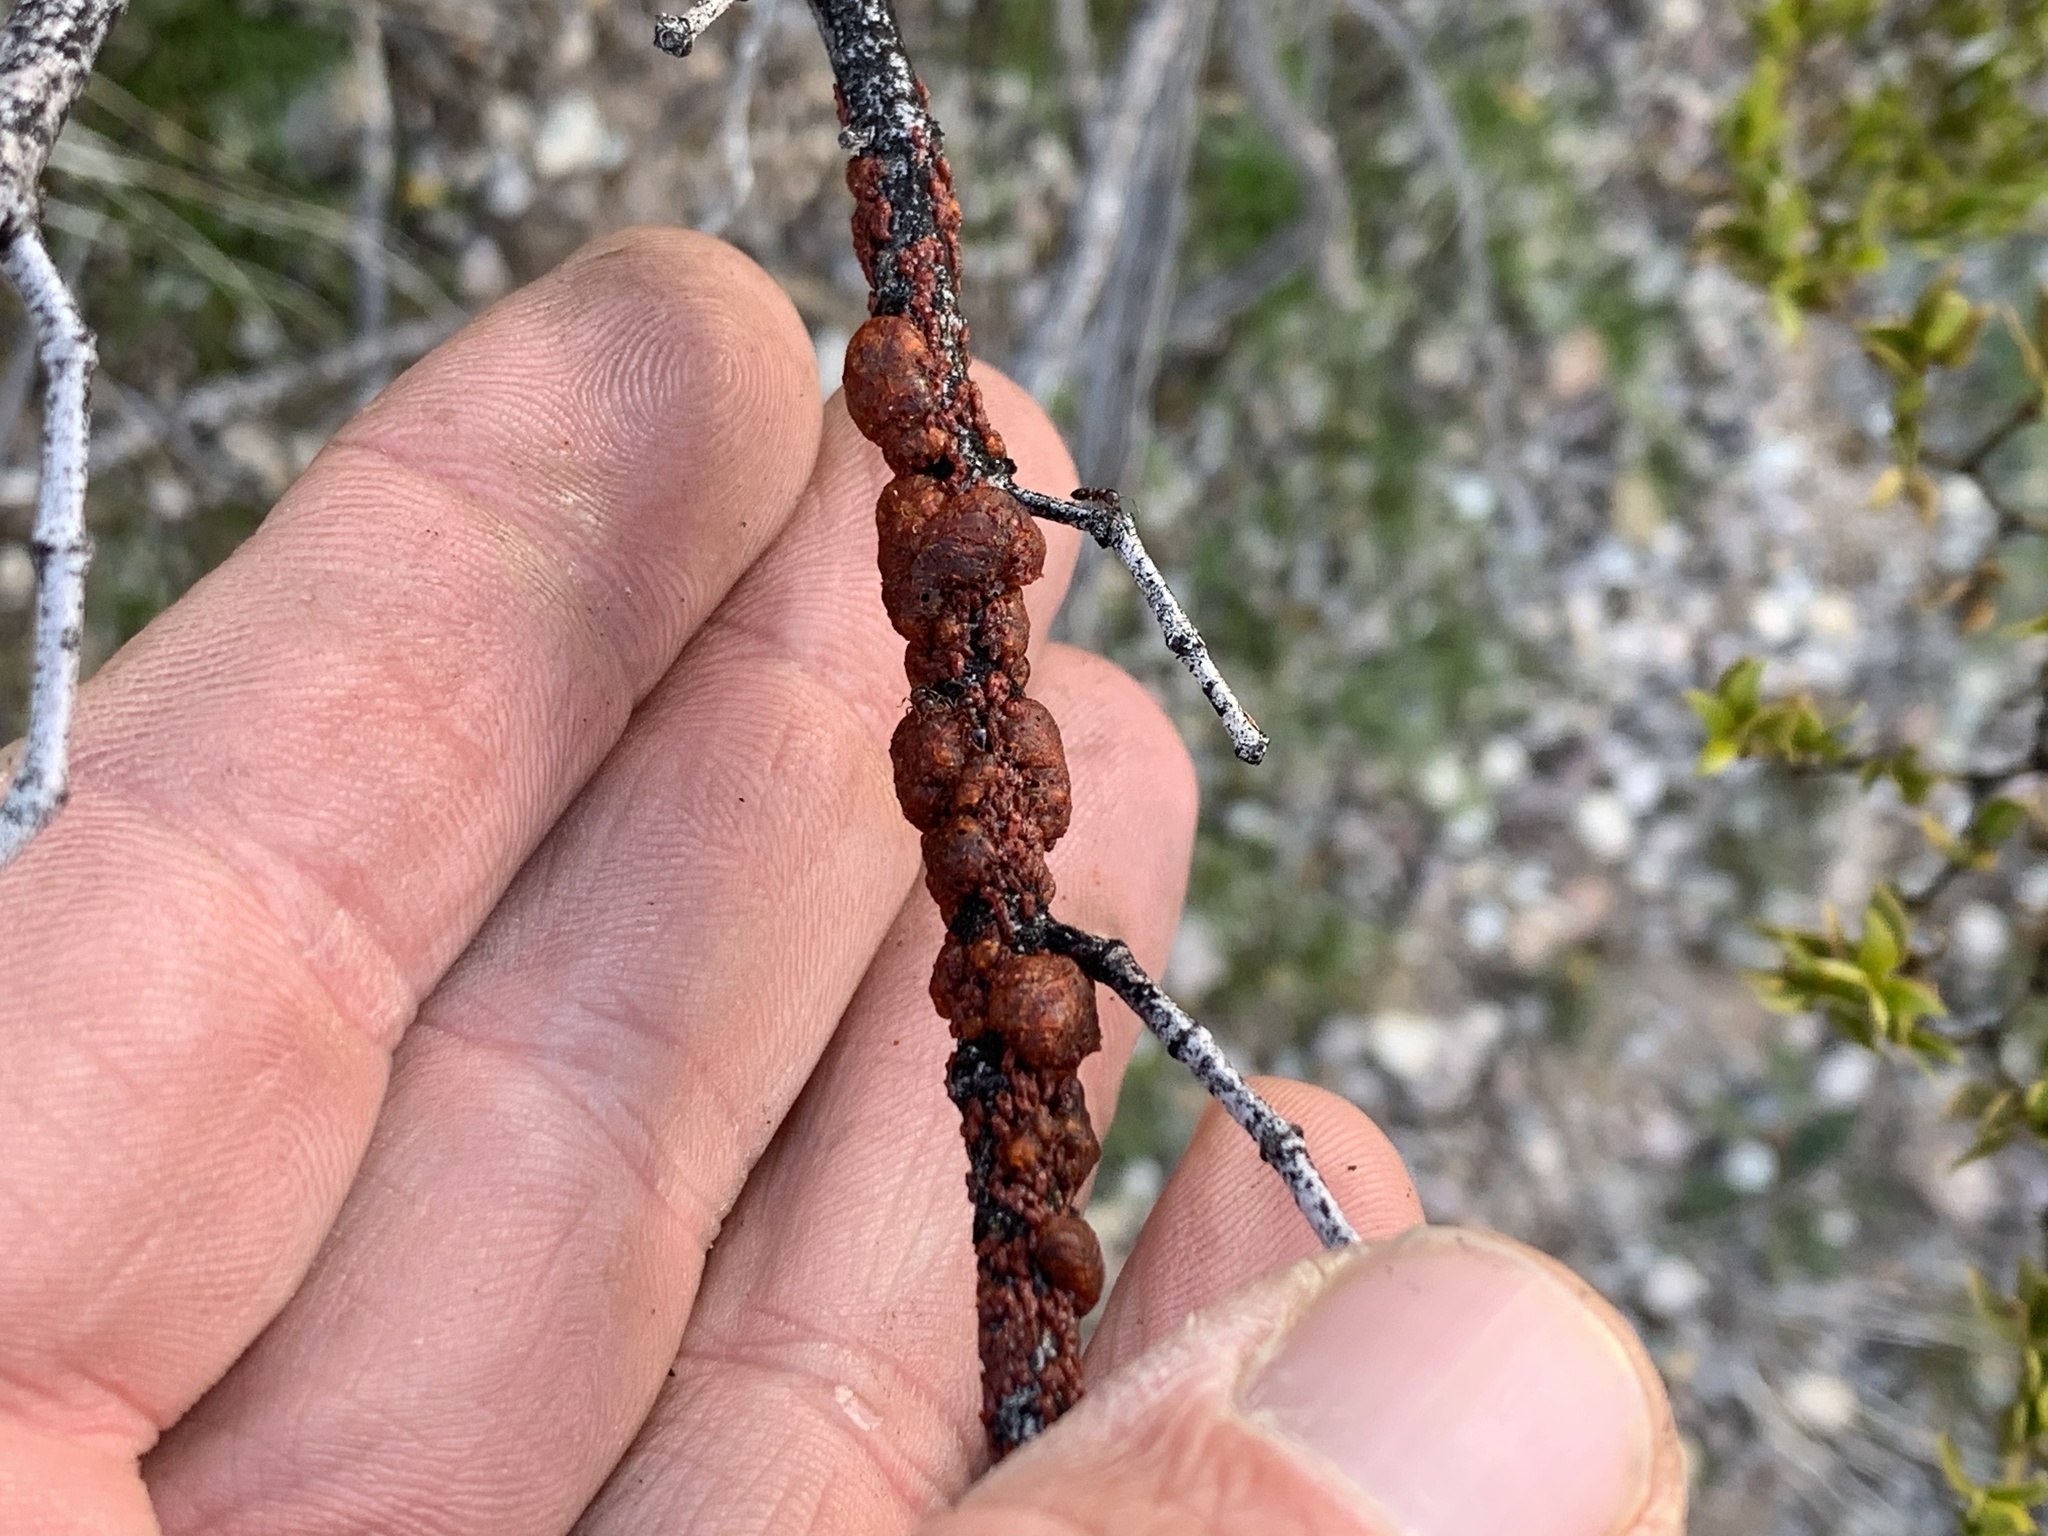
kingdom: Animalia
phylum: Arthropoda
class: Insecta
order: Hemiptera
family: Kerriidae
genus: Tachardiella
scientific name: Tachardiella larreae
